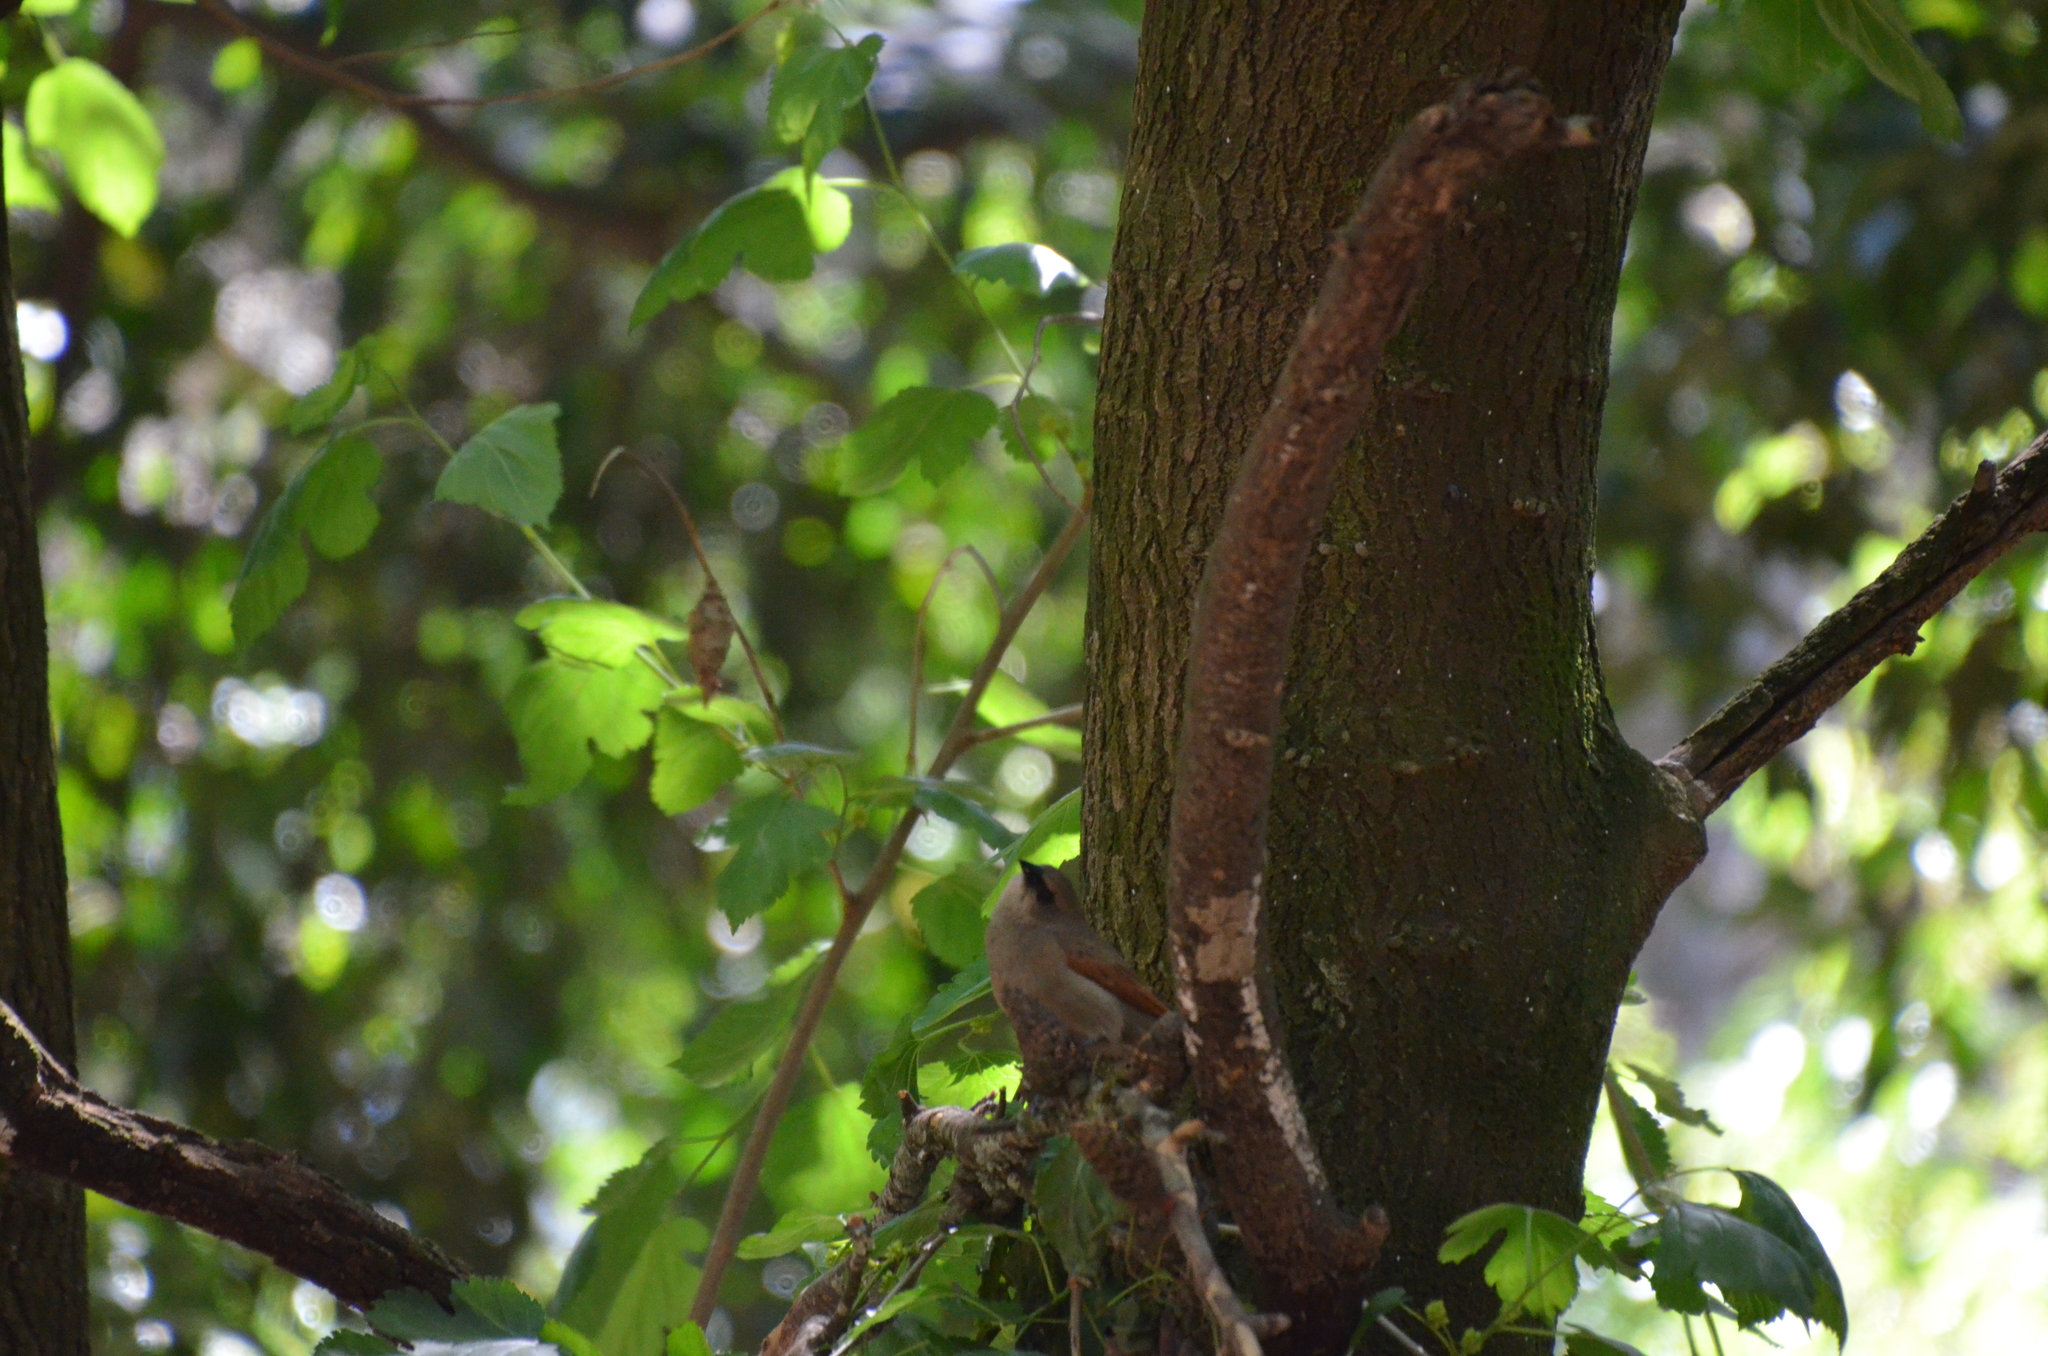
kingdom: Animalia
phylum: Chordata
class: Aves
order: Passeriformes
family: Icteridae
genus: Agelaioides
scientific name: Agelaioides badius
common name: Baywing
